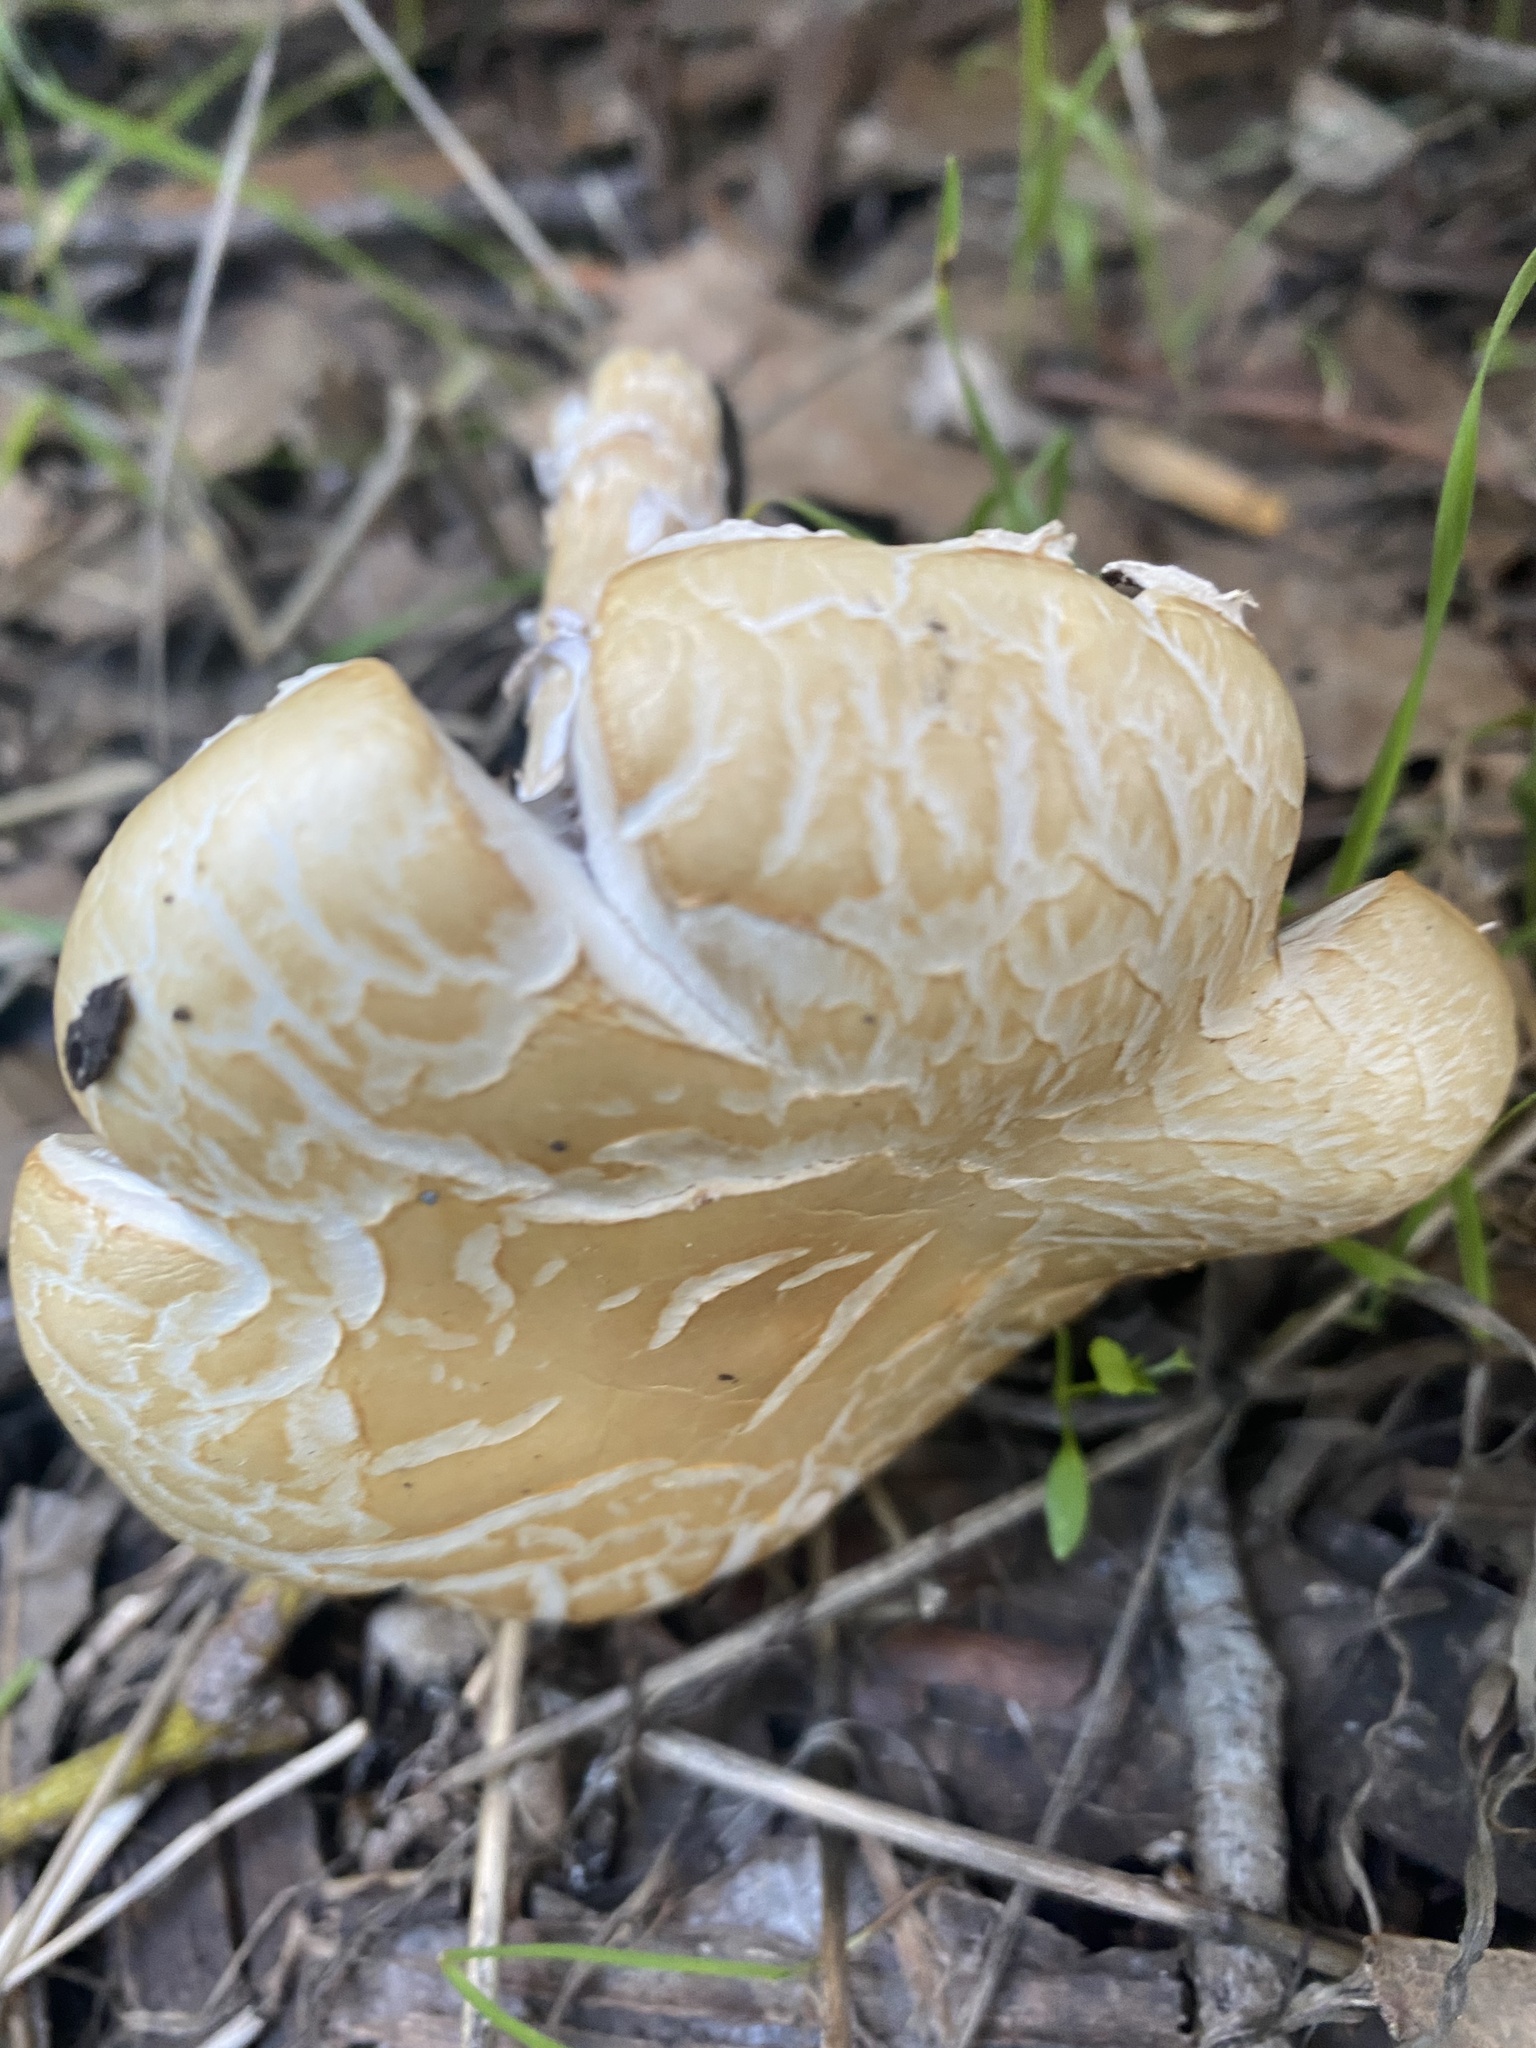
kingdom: Fungi
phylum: Basidiomycota
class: Agaricomycetes
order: Agaricales
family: Strophariaceae
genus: Stropharia
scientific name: Stropharia ambigua
